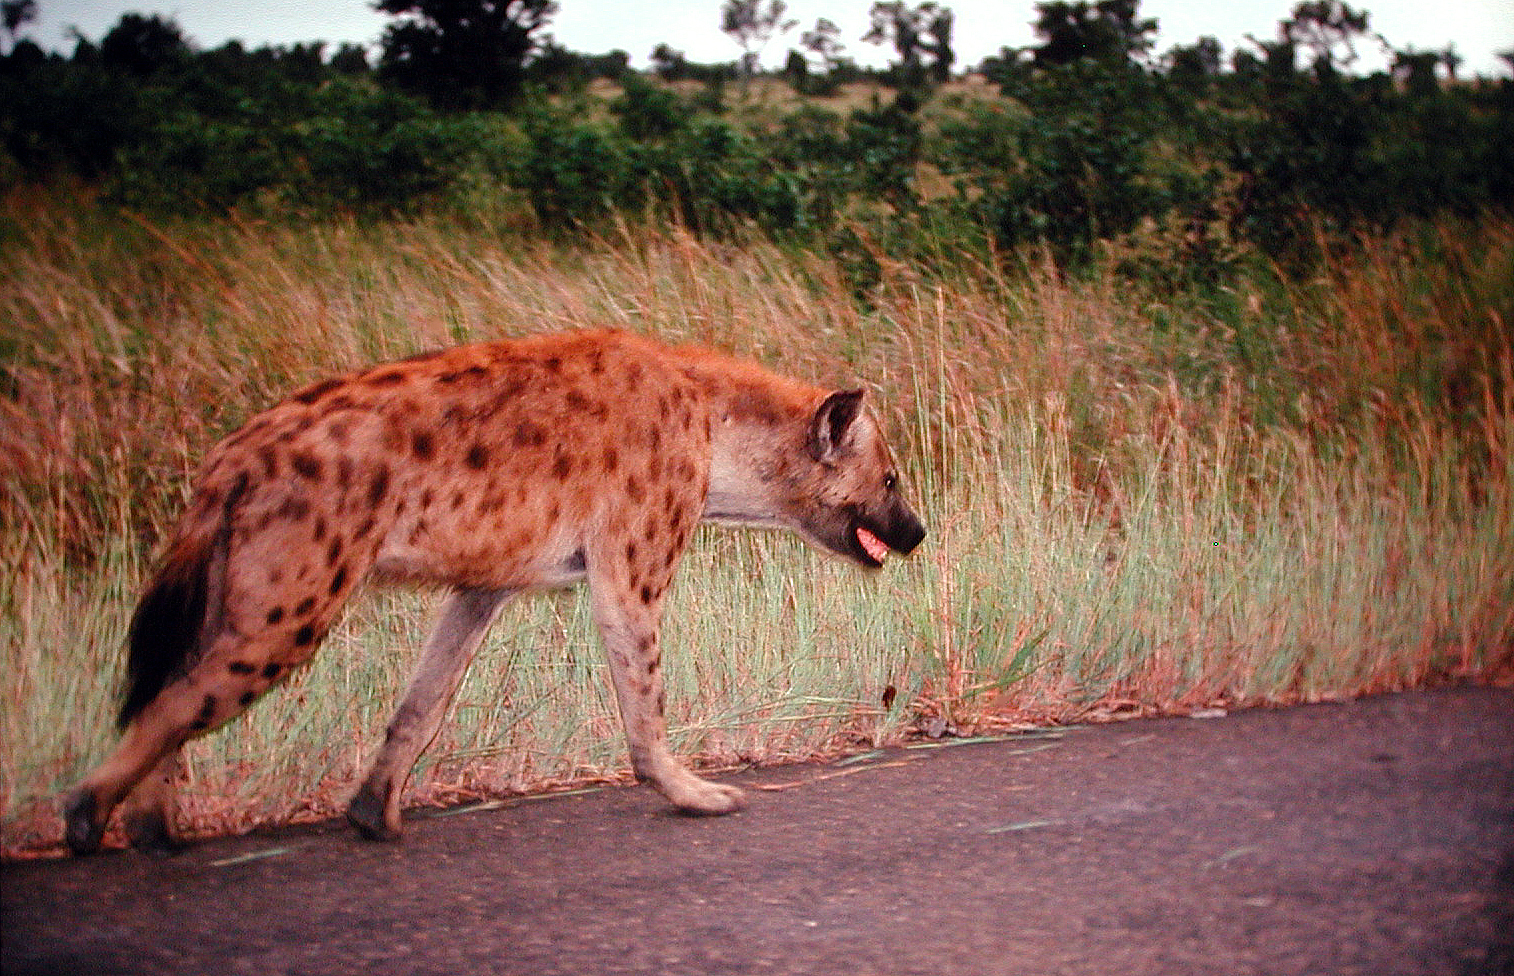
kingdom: Animalia
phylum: Chordata
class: Mammalia
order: Carnivora
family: Hyaenidae
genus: Crocuta
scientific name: Crocuta crocuta
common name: Spotted hyaena
